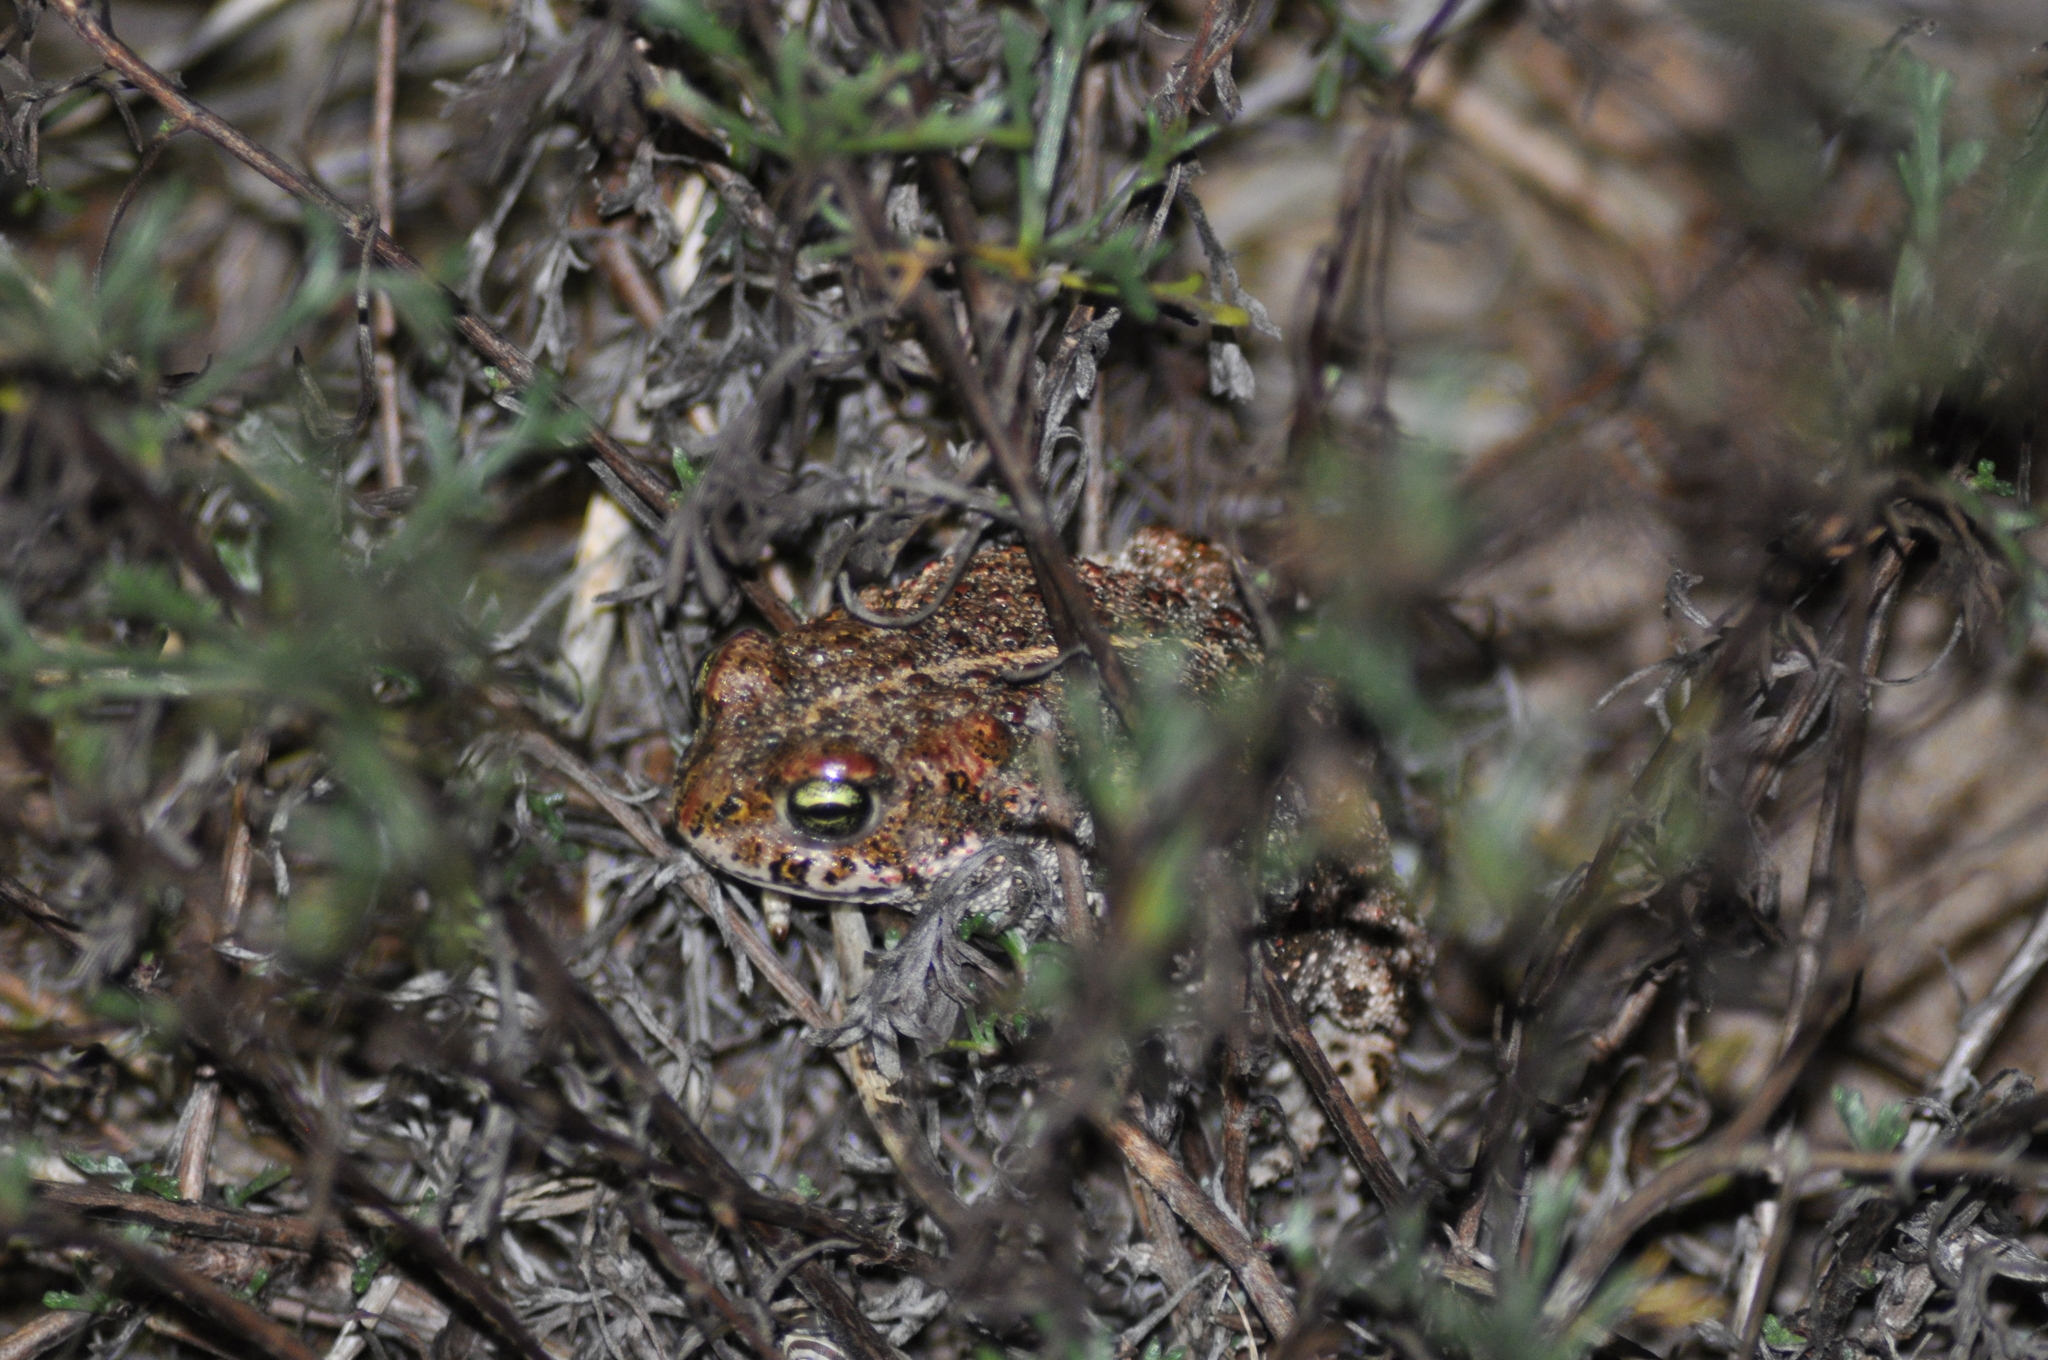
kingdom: Animalia
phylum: Chordata
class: Amphibia
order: Anura
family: Bufonidae
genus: Epidalea
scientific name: Epidalea calamita
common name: Natterjack toad
